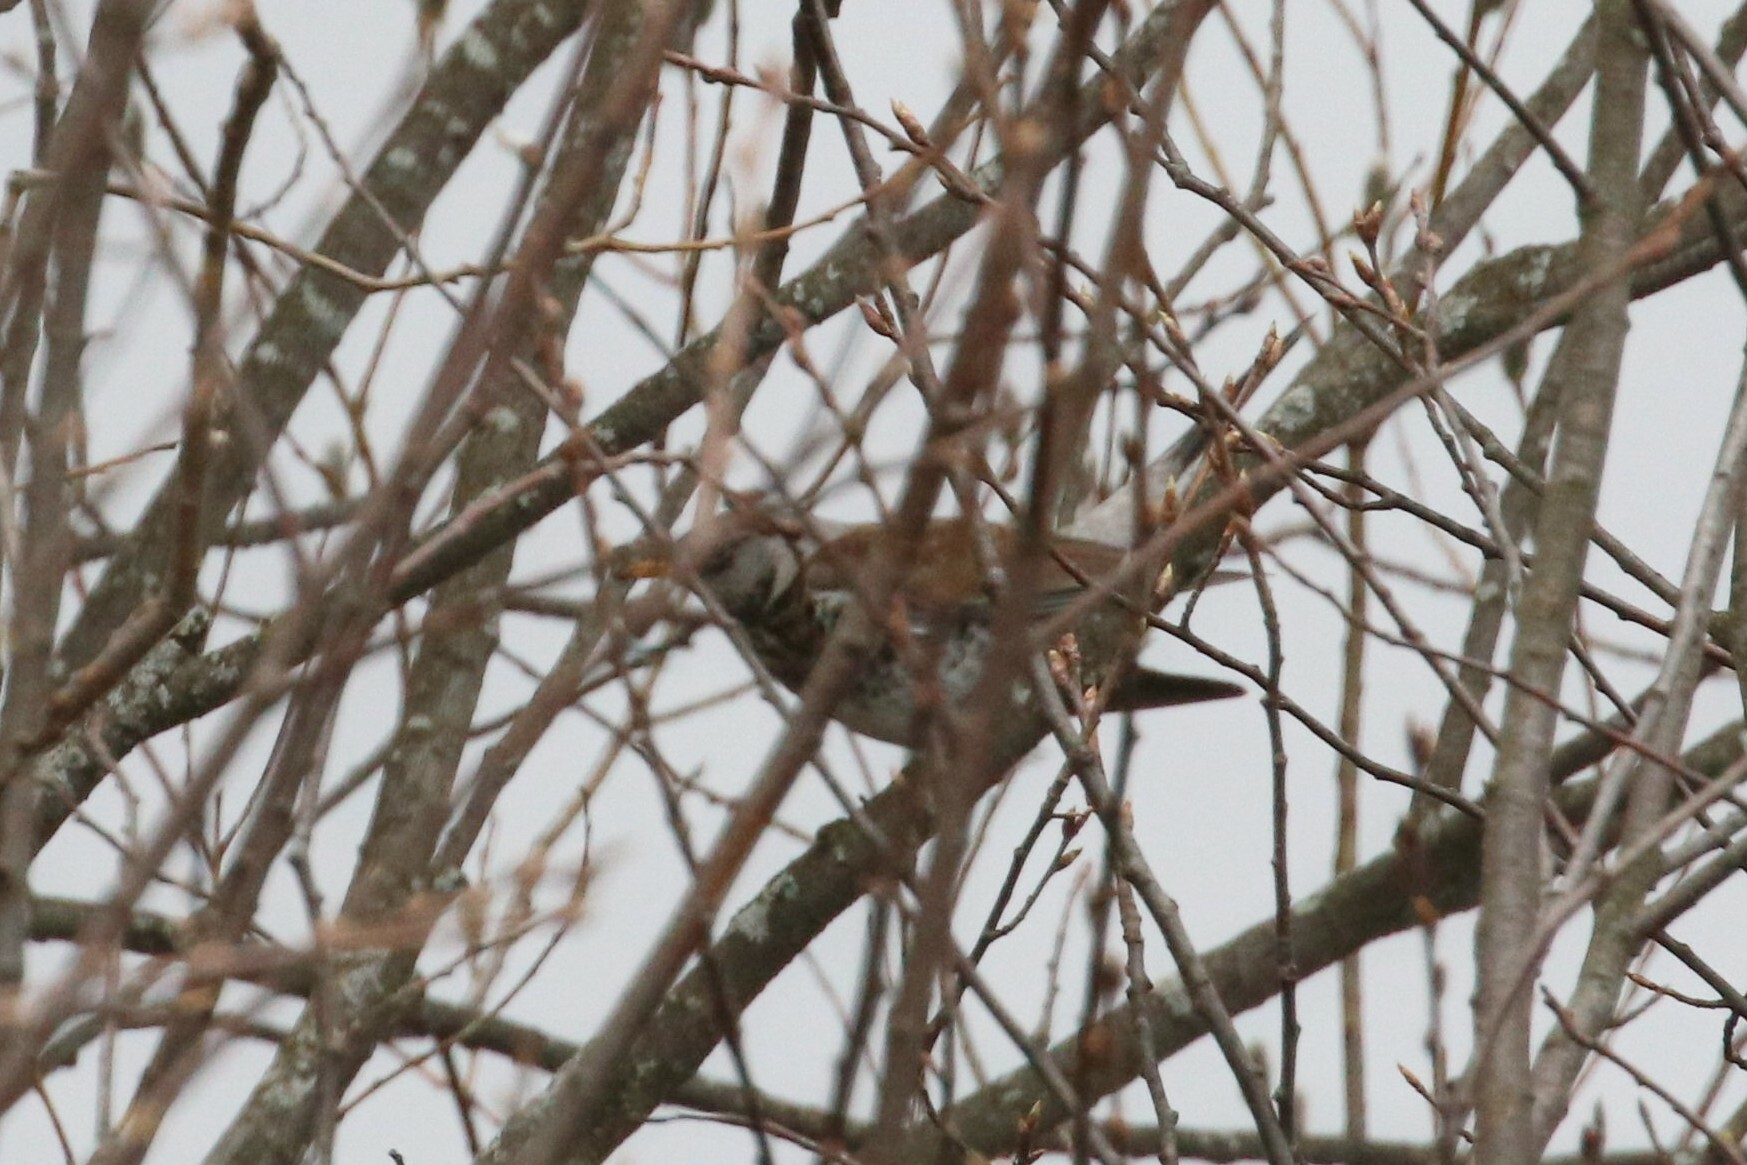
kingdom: Animalia
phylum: Chordata
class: Aves
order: Passeriformes
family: Turdidae
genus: Turdus
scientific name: Turdus pilaris
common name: Fieldfare
